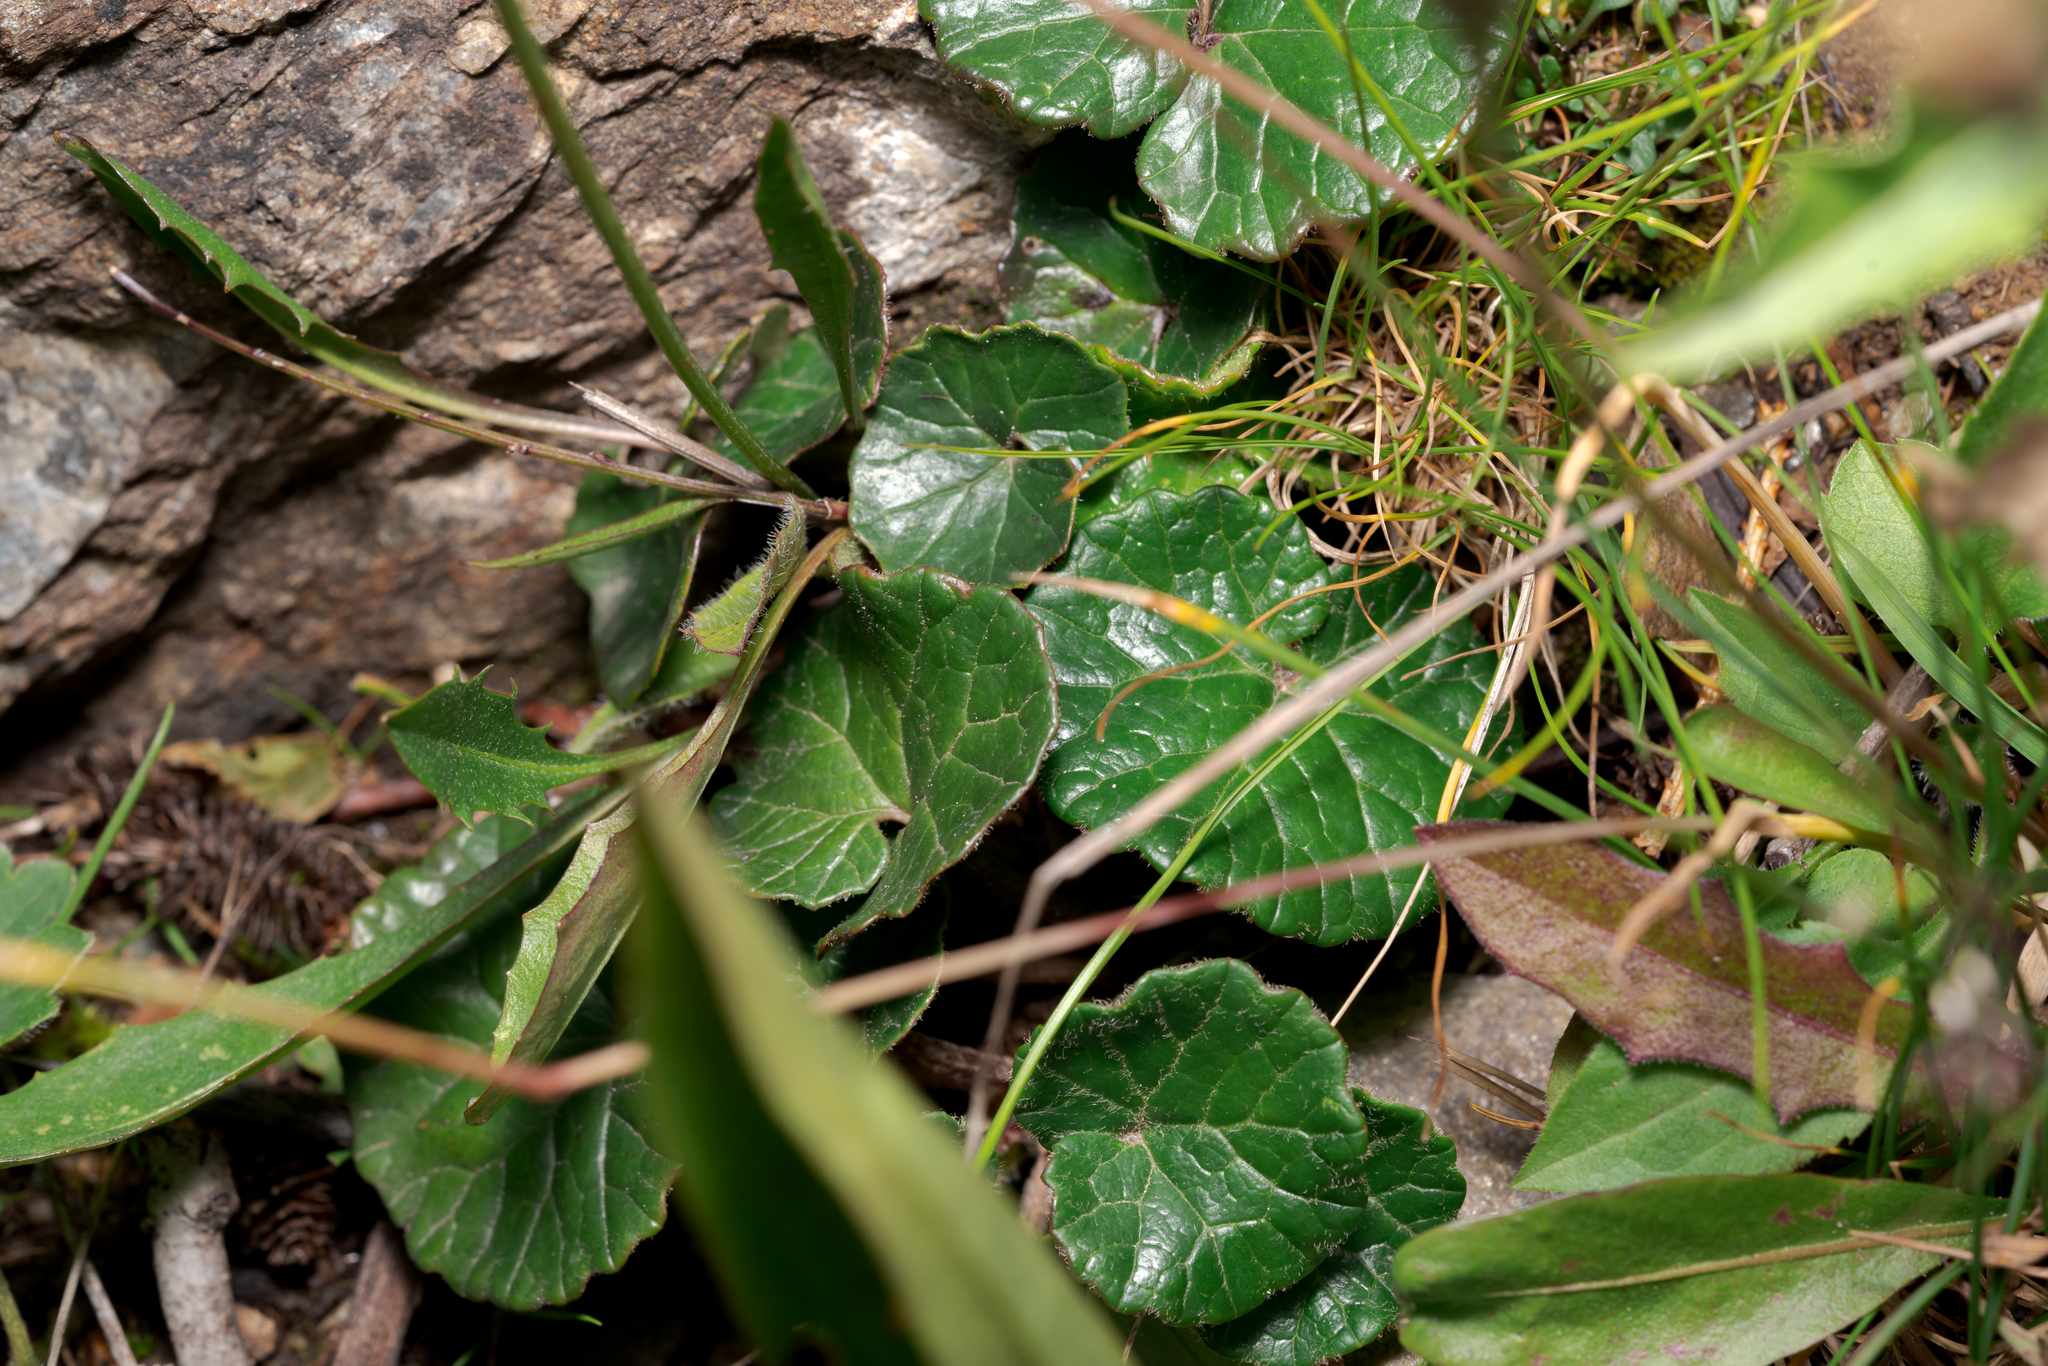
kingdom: Plantae
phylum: Tracheophyta
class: Magnoliopsida
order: Asterales
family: Asteraceae
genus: Homogyne
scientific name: Homogyne alpina
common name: Purple colt's-foot
